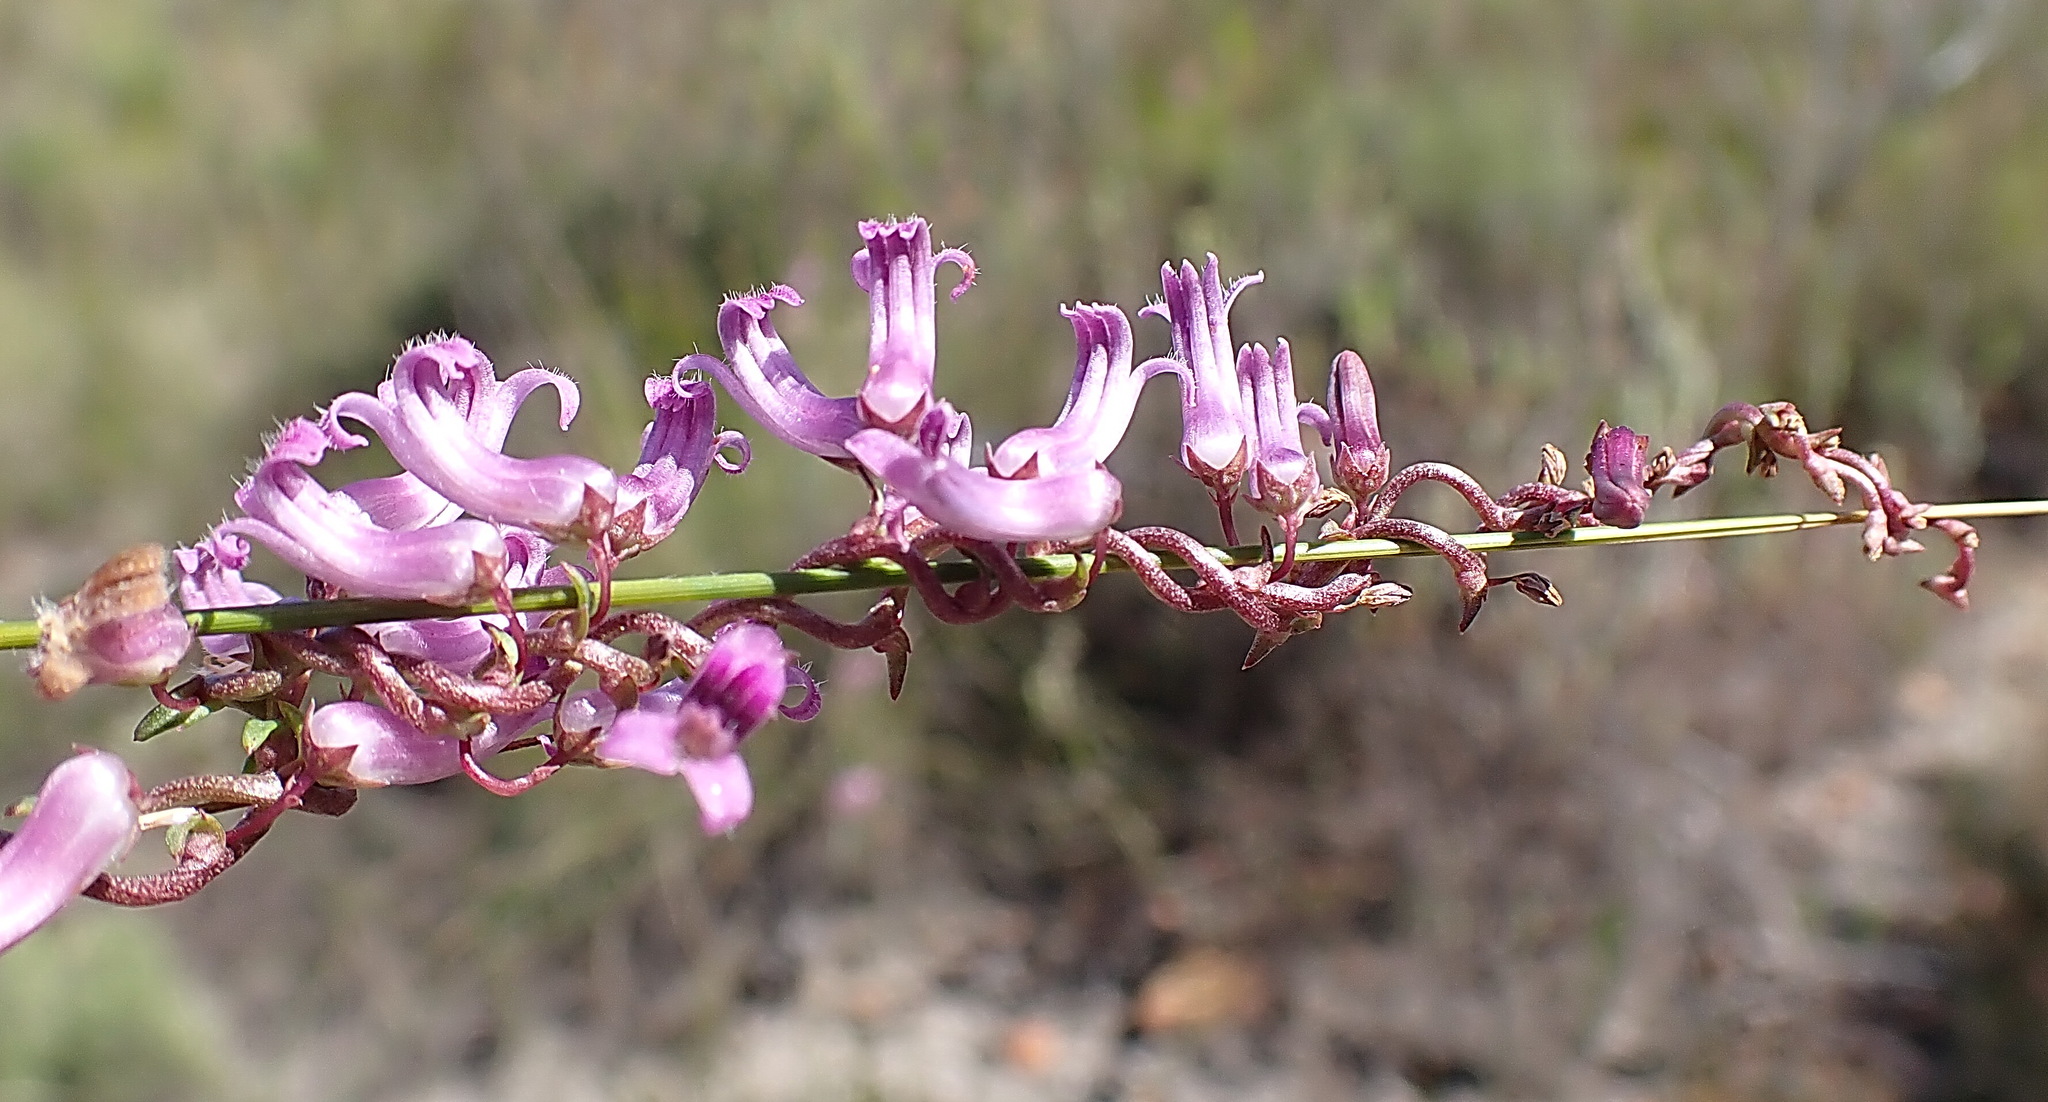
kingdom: Plantae
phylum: Tracheophyta
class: Magnoliopsida
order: Asterales
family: Campanulaceae
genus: Cyphia
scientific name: Cyphia digitata
